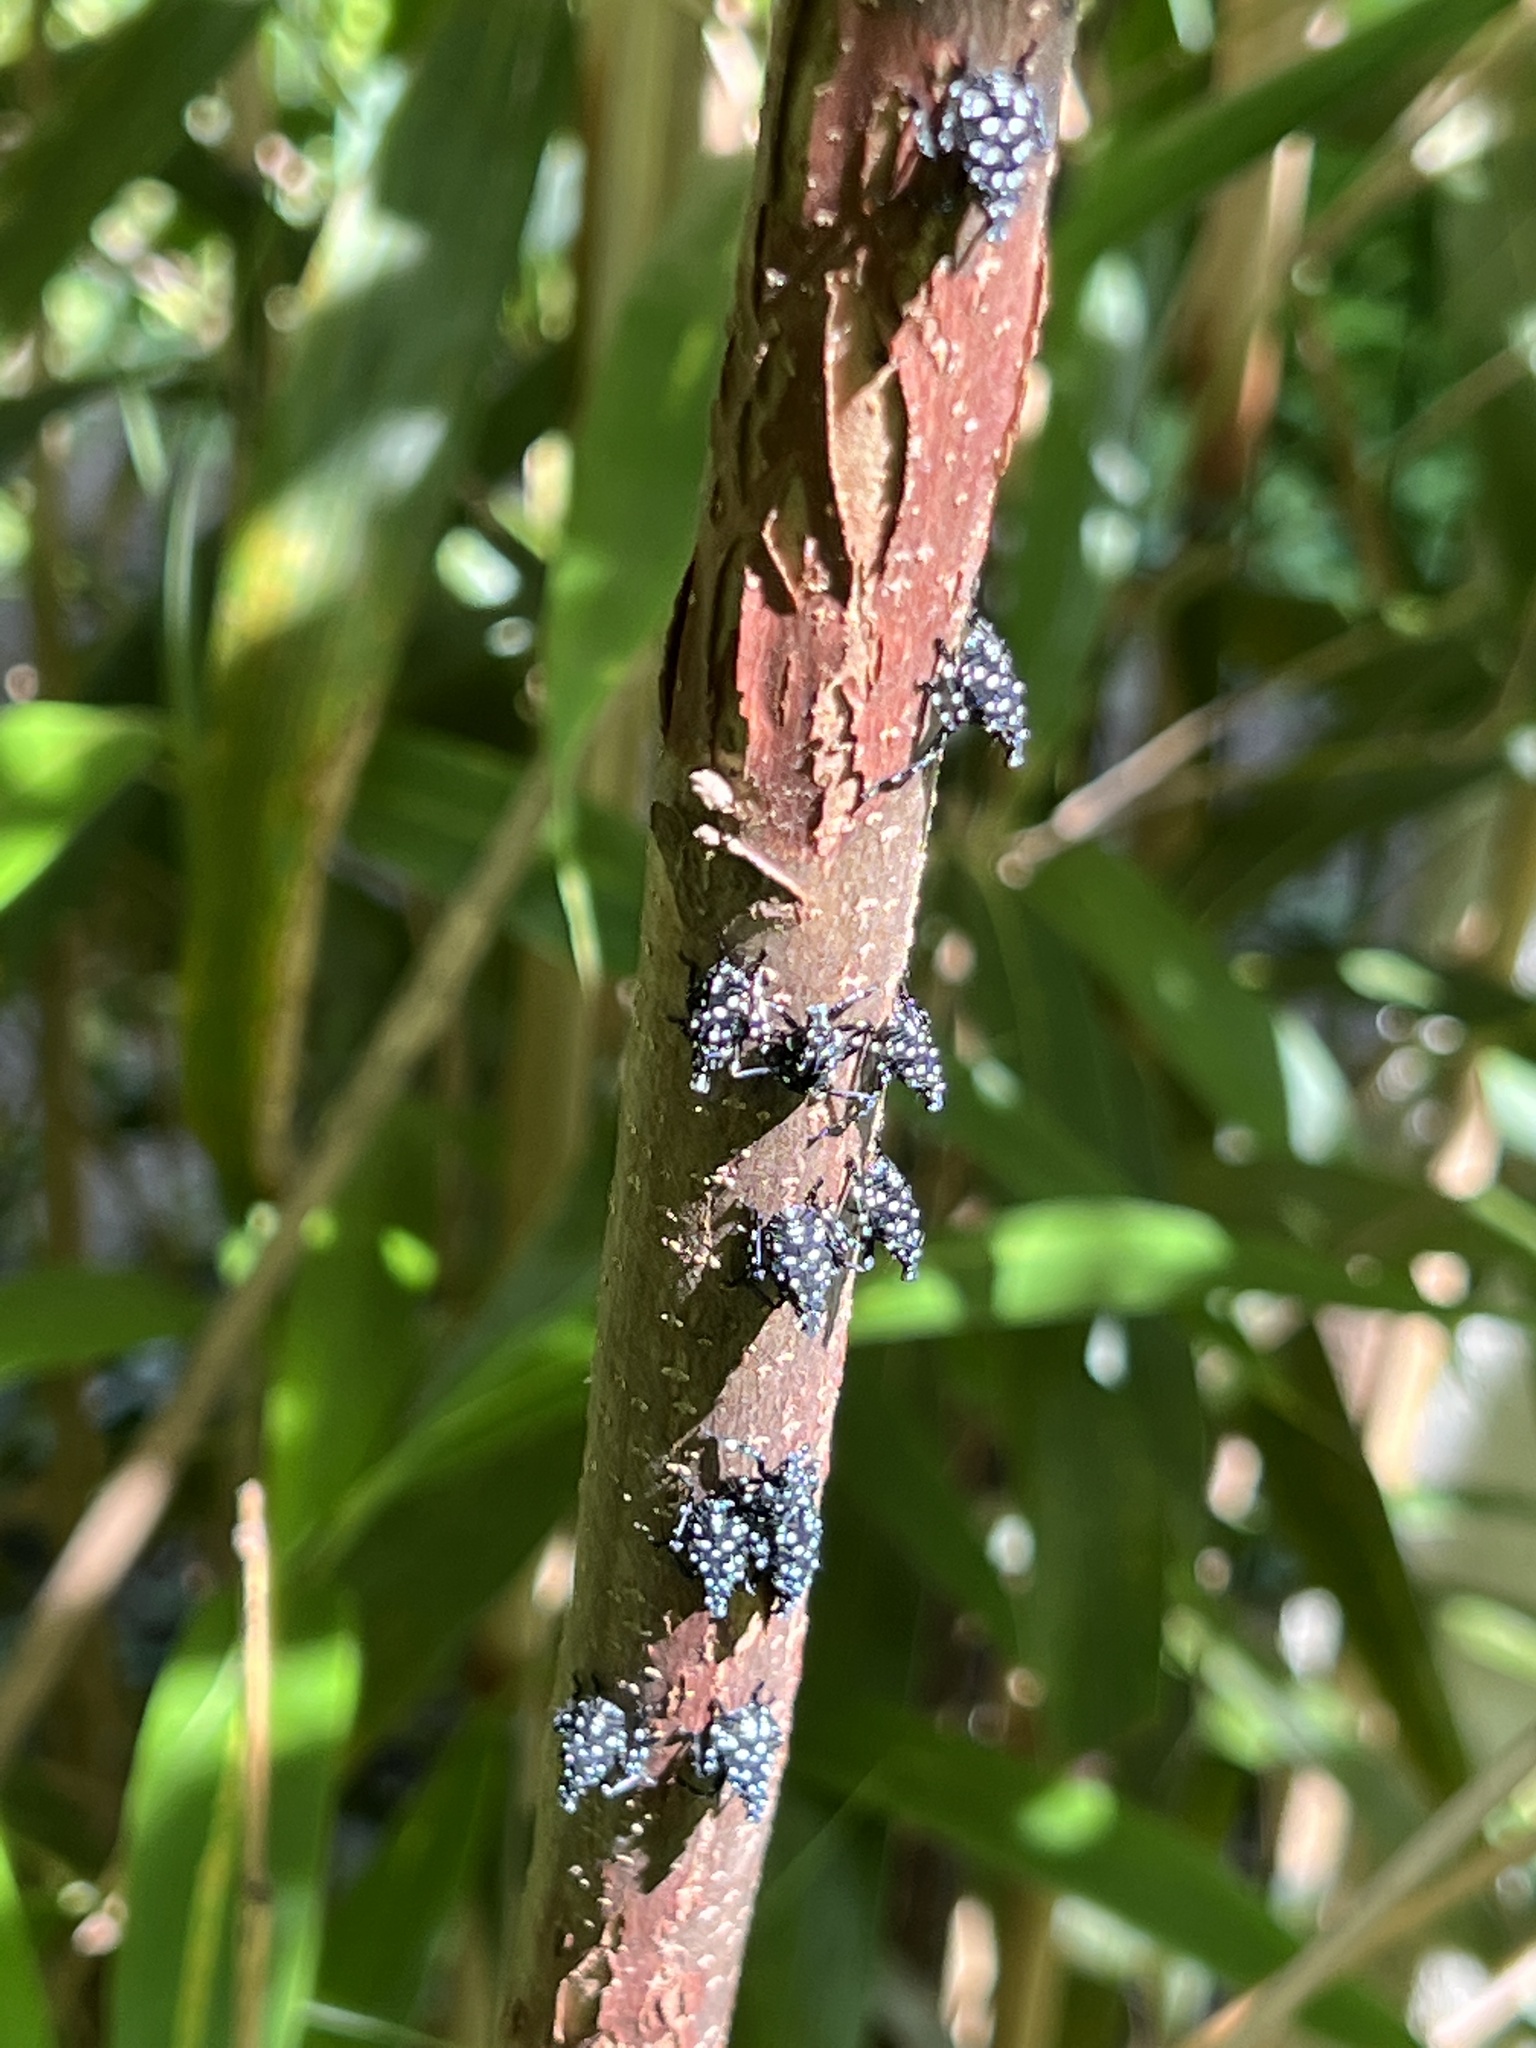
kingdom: Animalia
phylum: Arthropoda
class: Insecta
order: Hemiptera
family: Fulgoridae
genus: Lycorma
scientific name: Lycorma delicatula
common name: Spotted lanternfly
